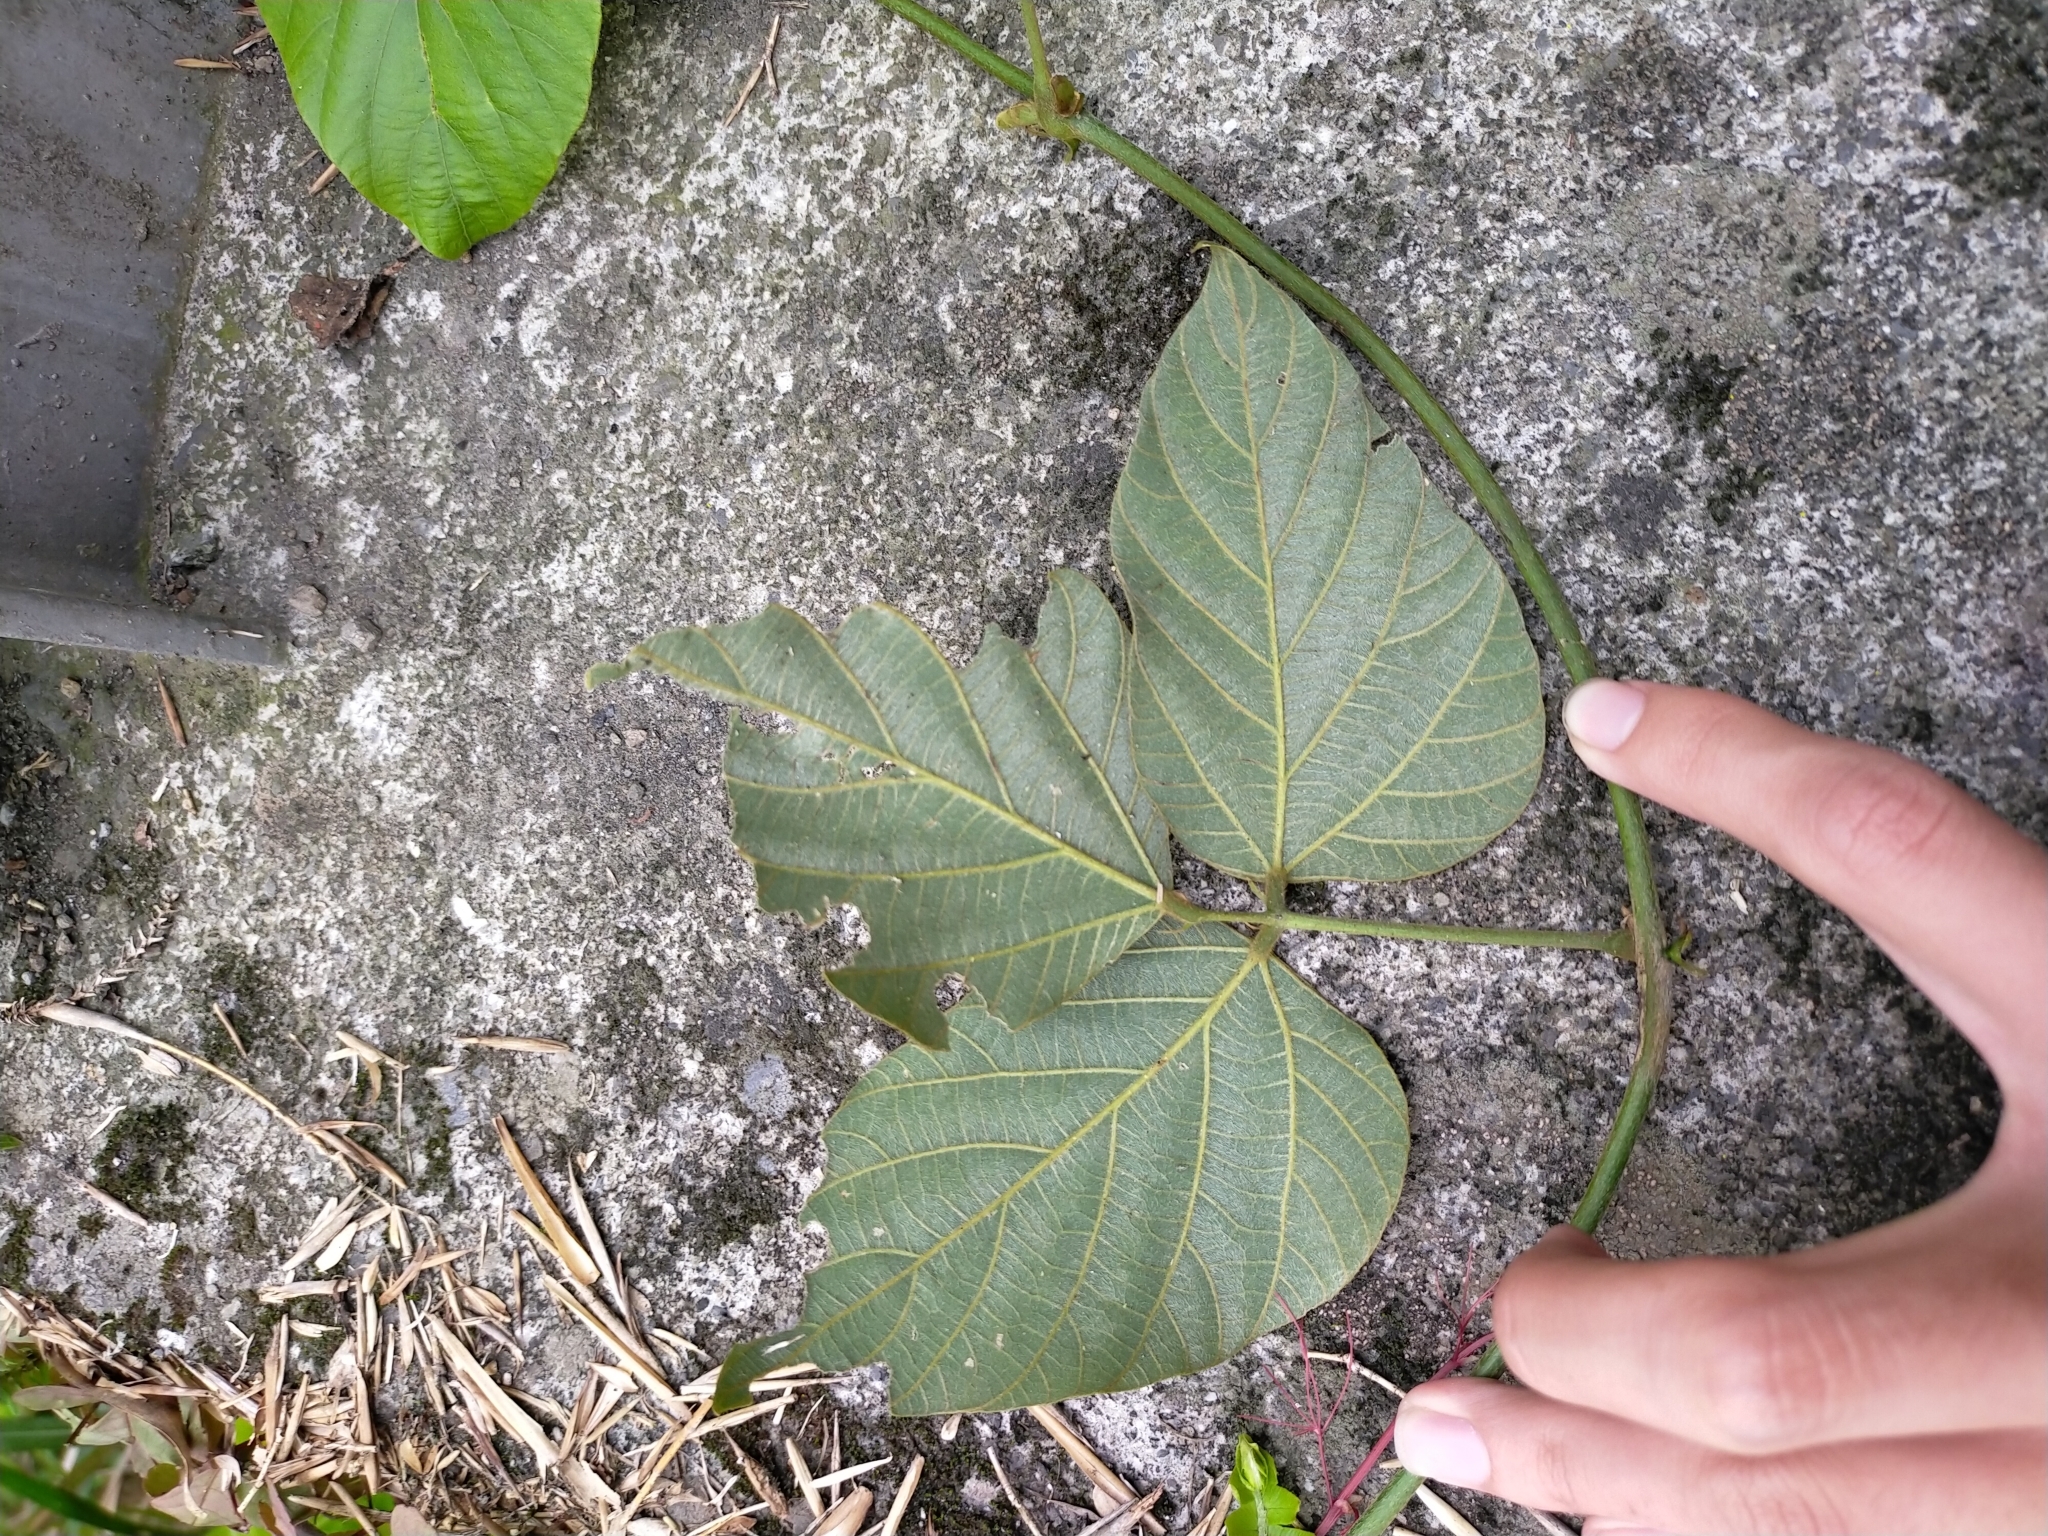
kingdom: Plantae
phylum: Tracheophyta
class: Magnoliopsida
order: Fabales
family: Fabaceae
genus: Pueraria
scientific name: Pueraria montana
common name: Kudzu
